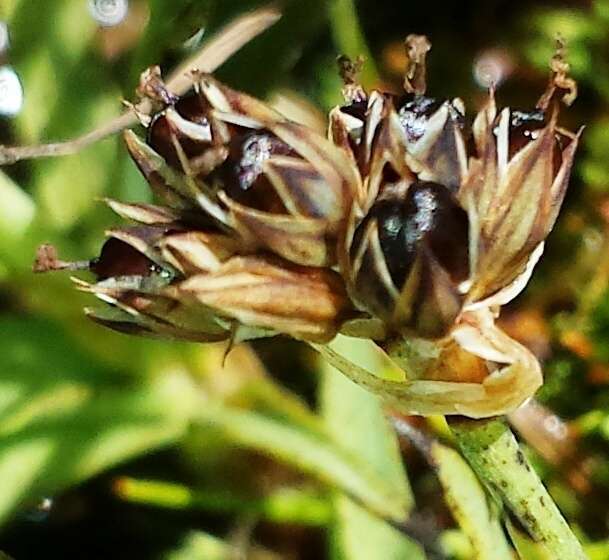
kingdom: Plantae
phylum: Tracheophyta
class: Liliopsida
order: Poales
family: Juncaceae
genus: Juncus
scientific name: Juncus falcatus
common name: Sickle-leaf rush
